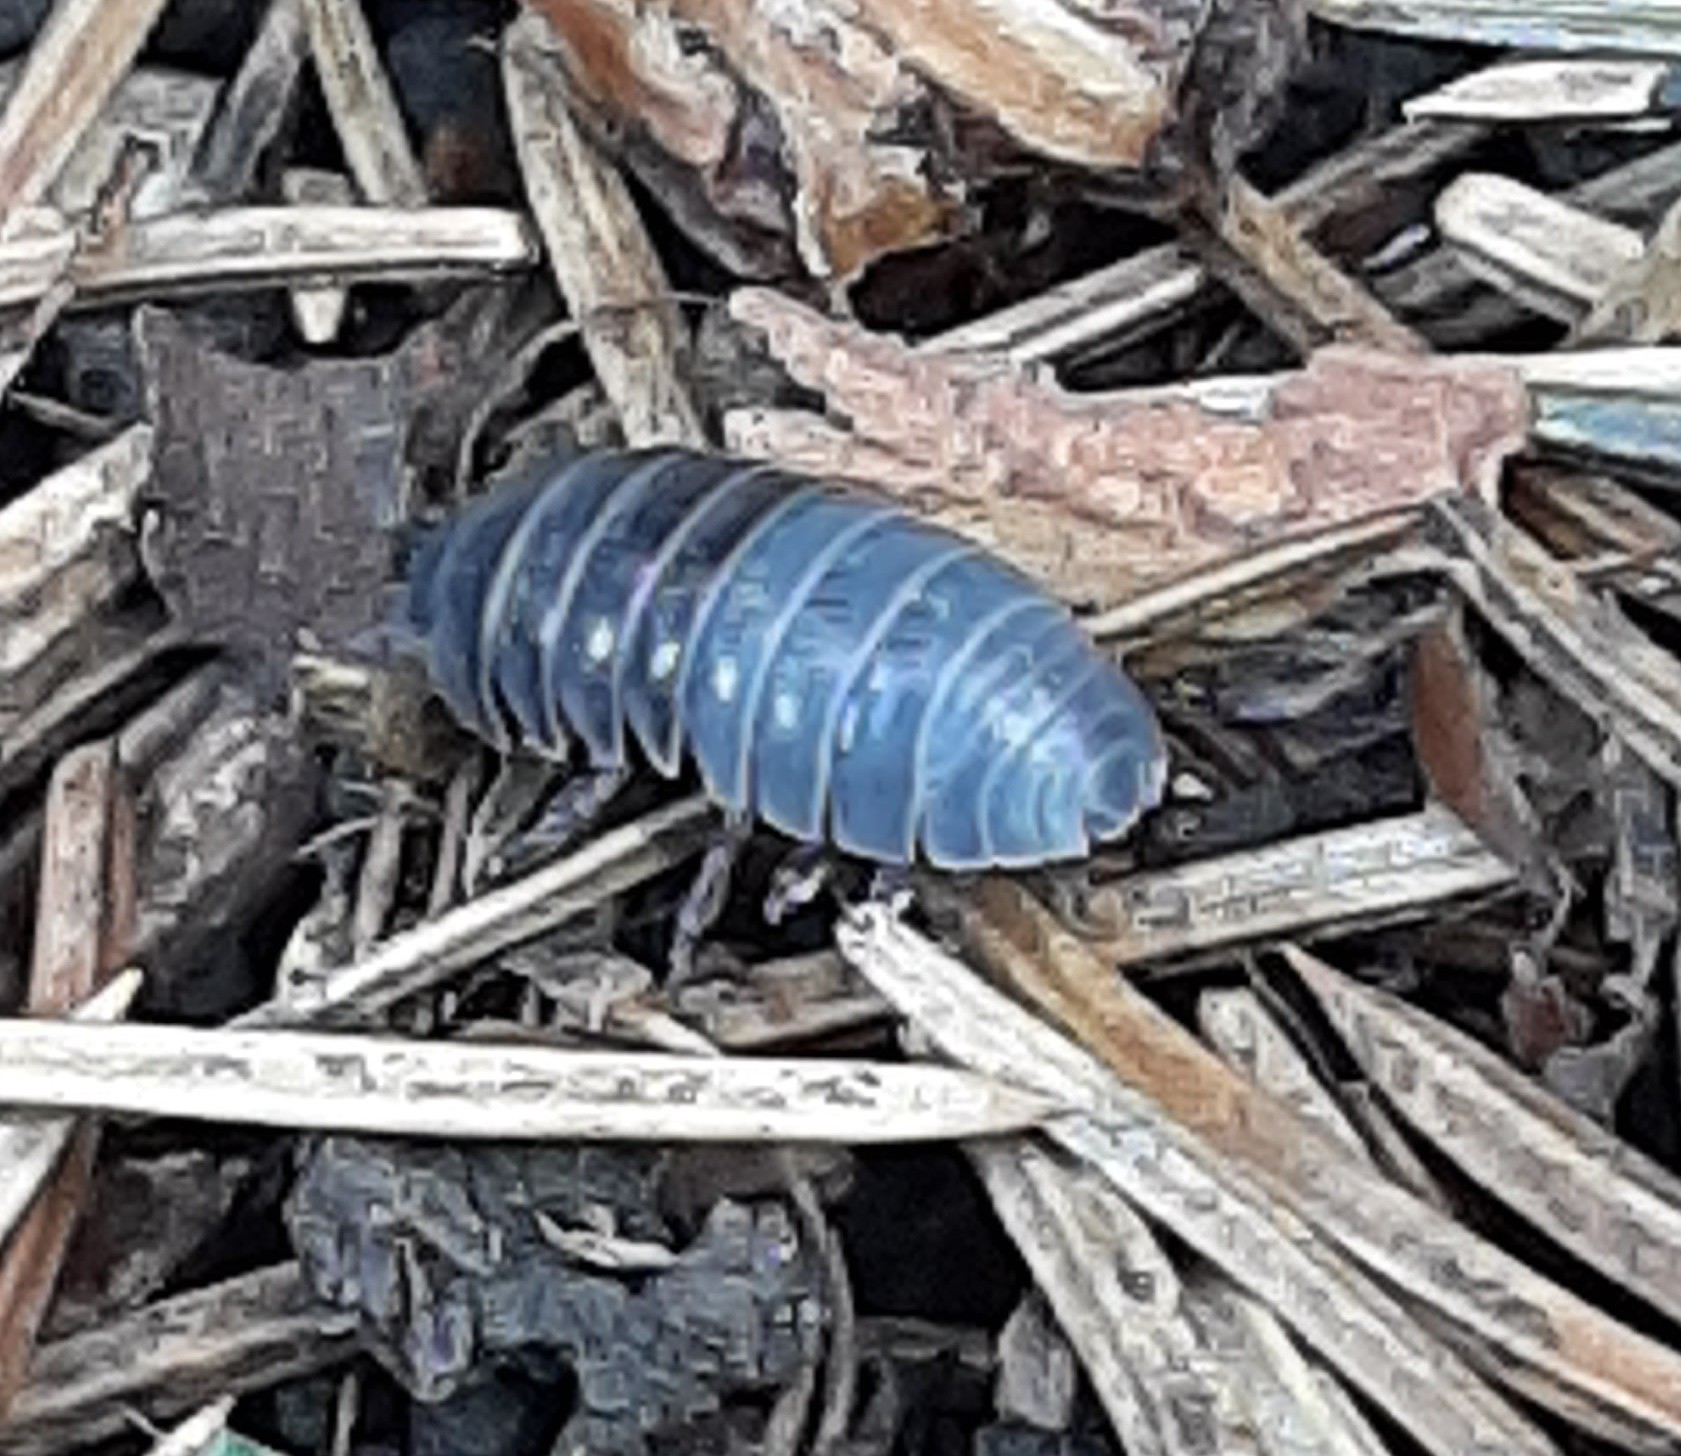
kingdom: Animalia
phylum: Arthropoda
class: Malacostraca
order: Isopoda
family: Armadillidiidae
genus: Armadillidium
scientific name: Armadillidium vulgare
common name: Common pill woodlouse
